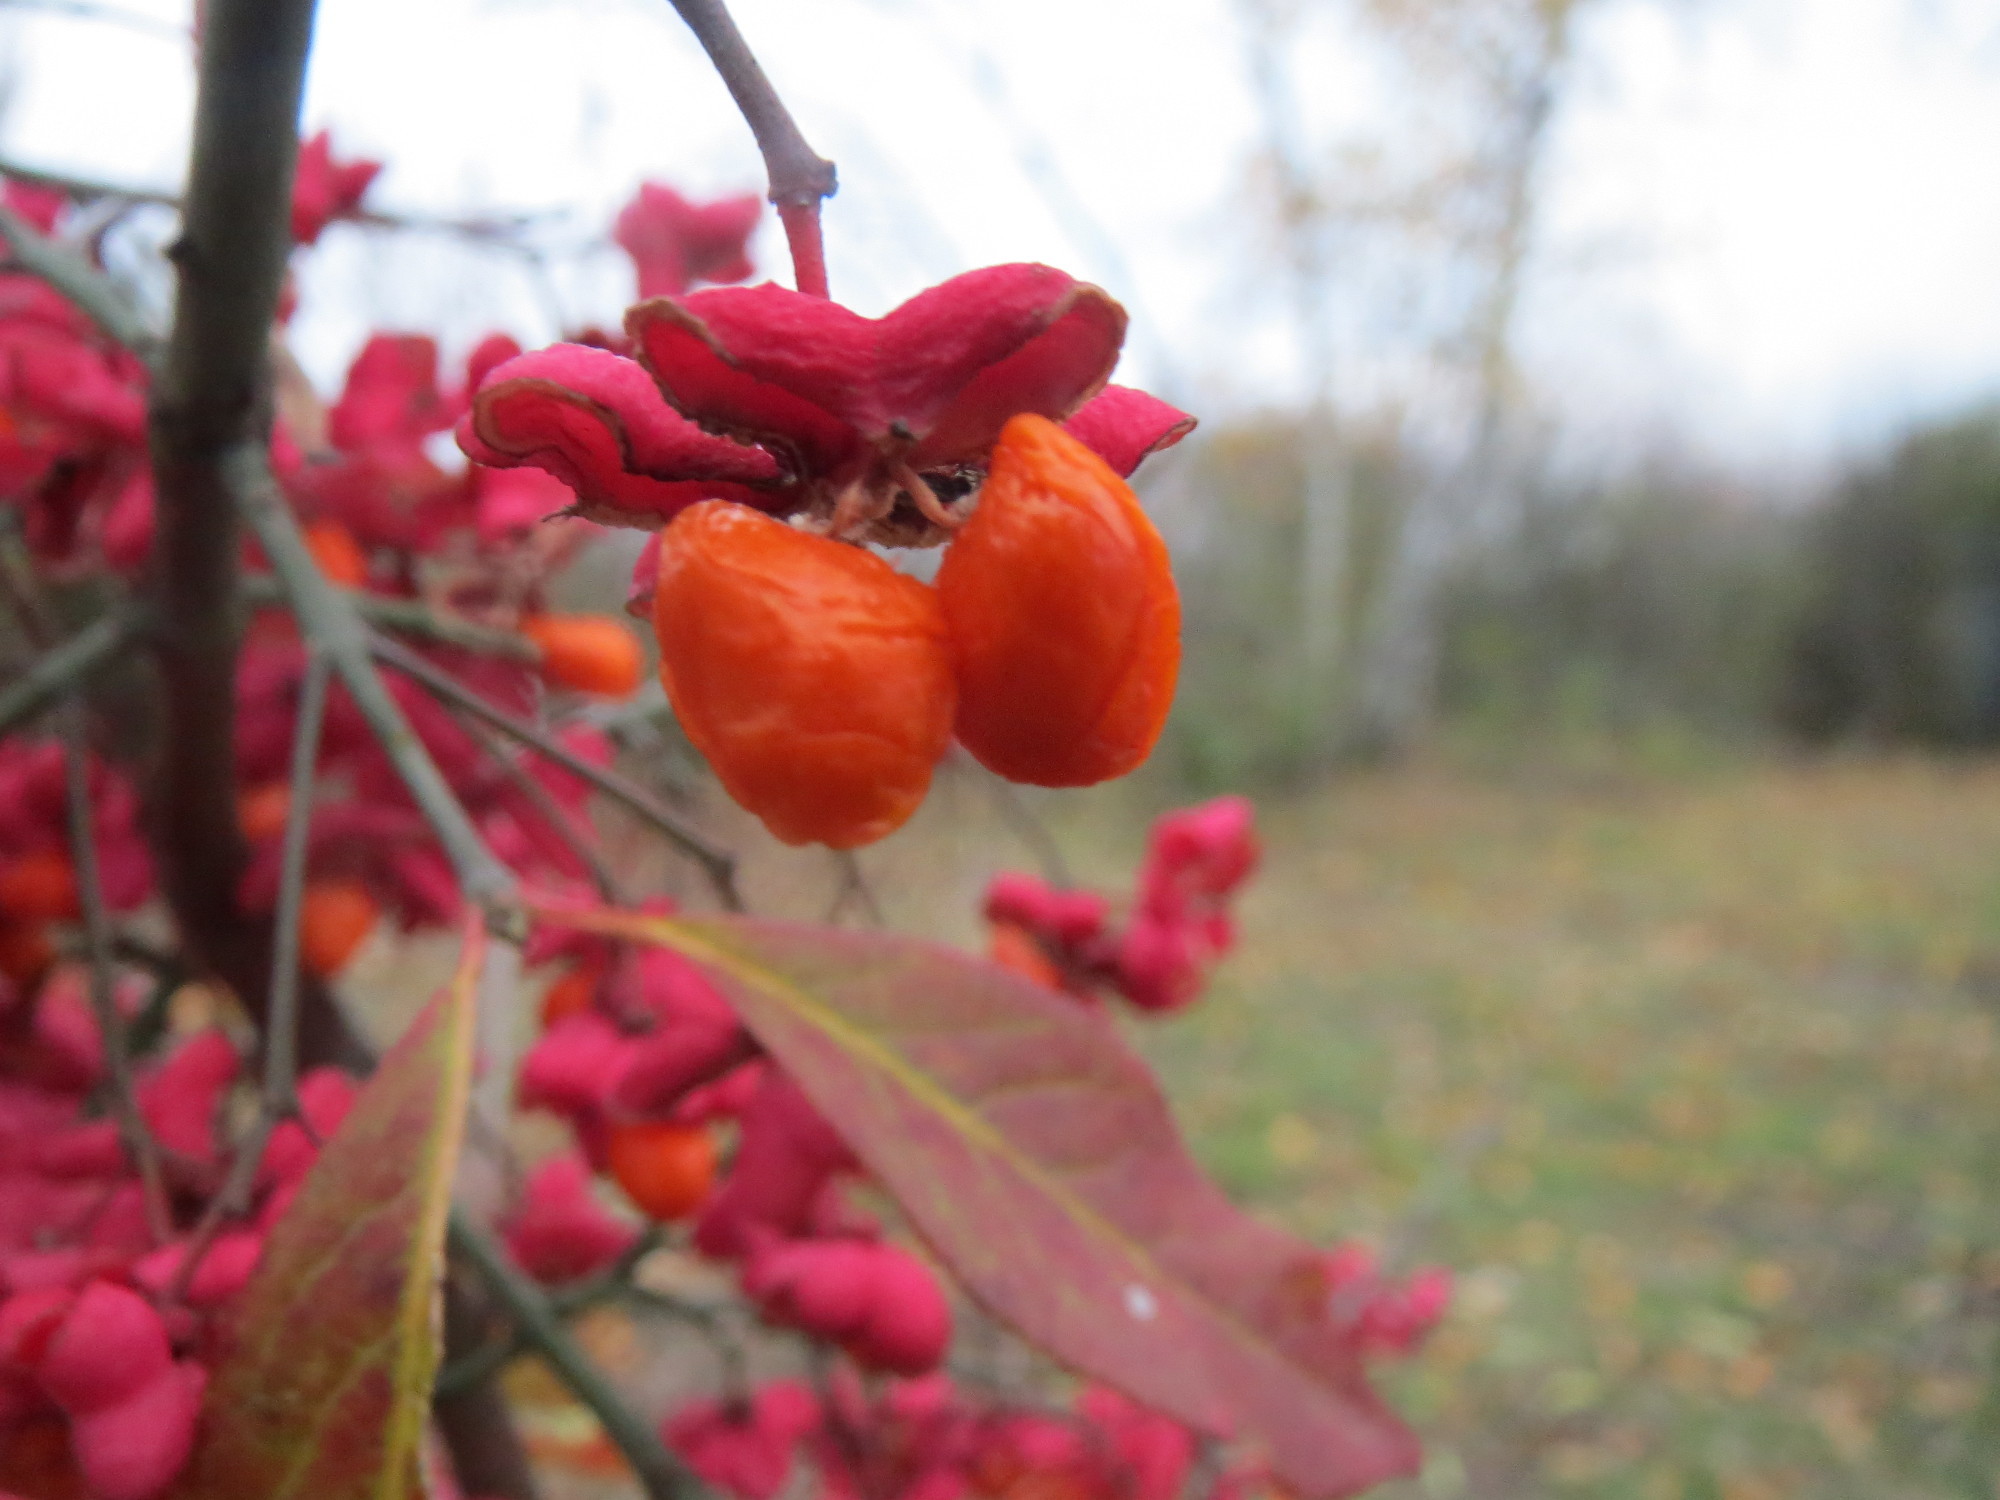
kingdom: Plantae
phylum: Tracheophyta
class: Magnoliopsida
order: Celastrales
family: Celastraceae
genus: Euonymus
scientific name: Euonymus europaeus
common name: Spindle
